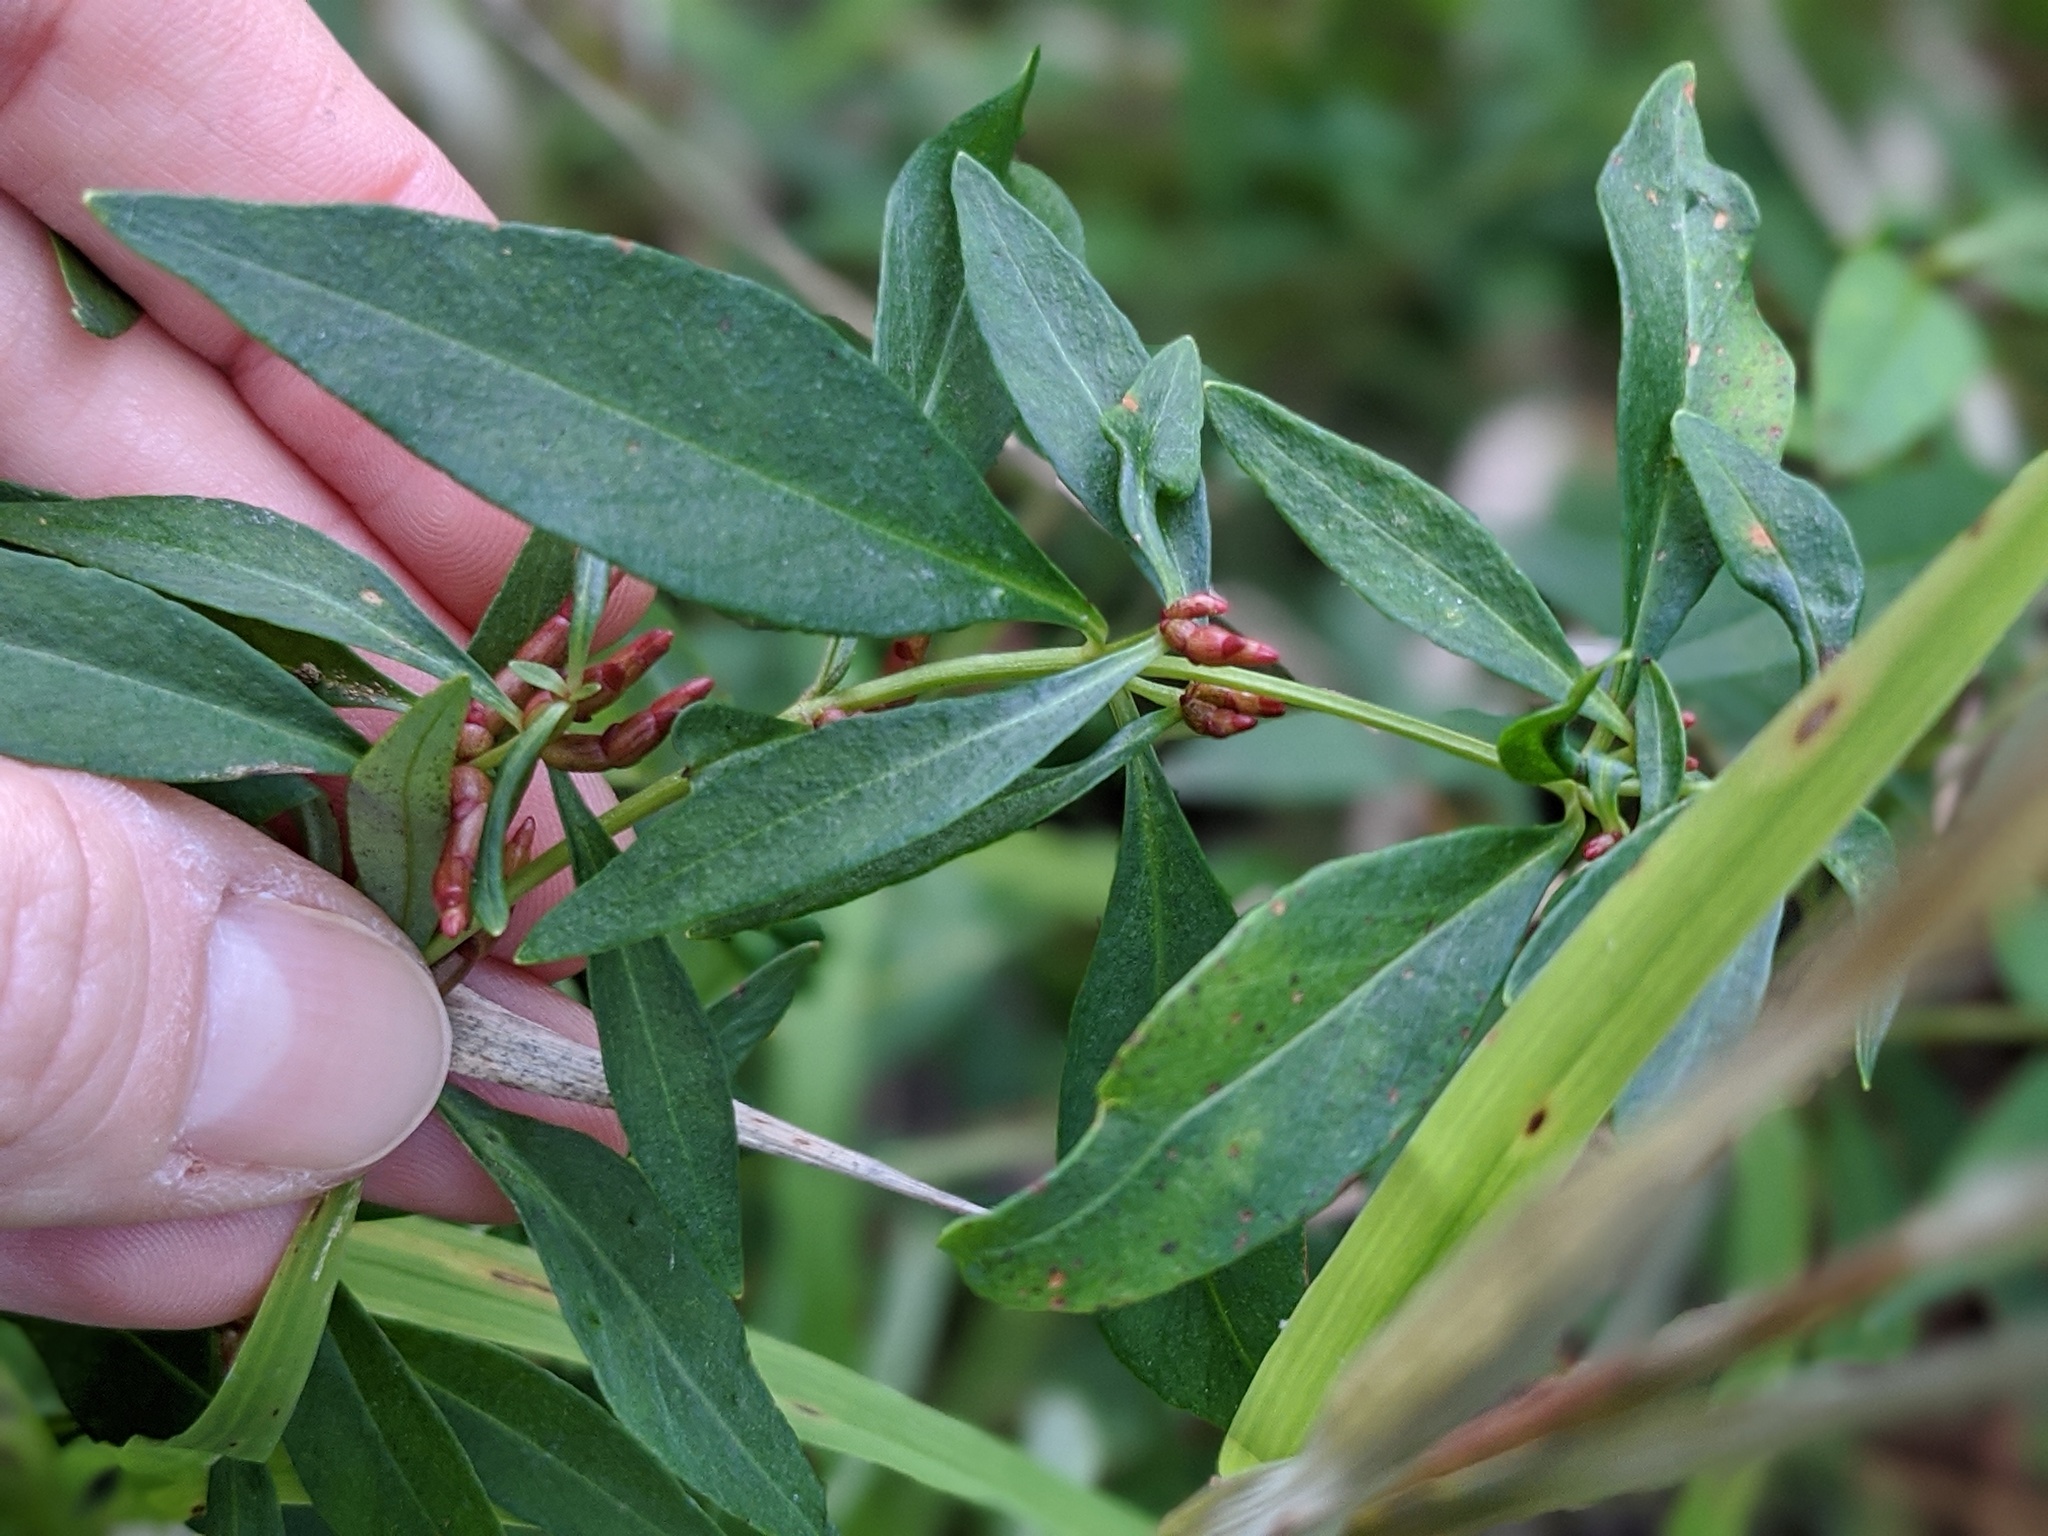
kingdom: Plantae
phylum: Tracheophyta
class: Magnoliopsida
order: Ericales
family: Primulaceae
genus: Lysimachia
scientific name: Lysimachia terrestris
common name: Lake loosestrife
